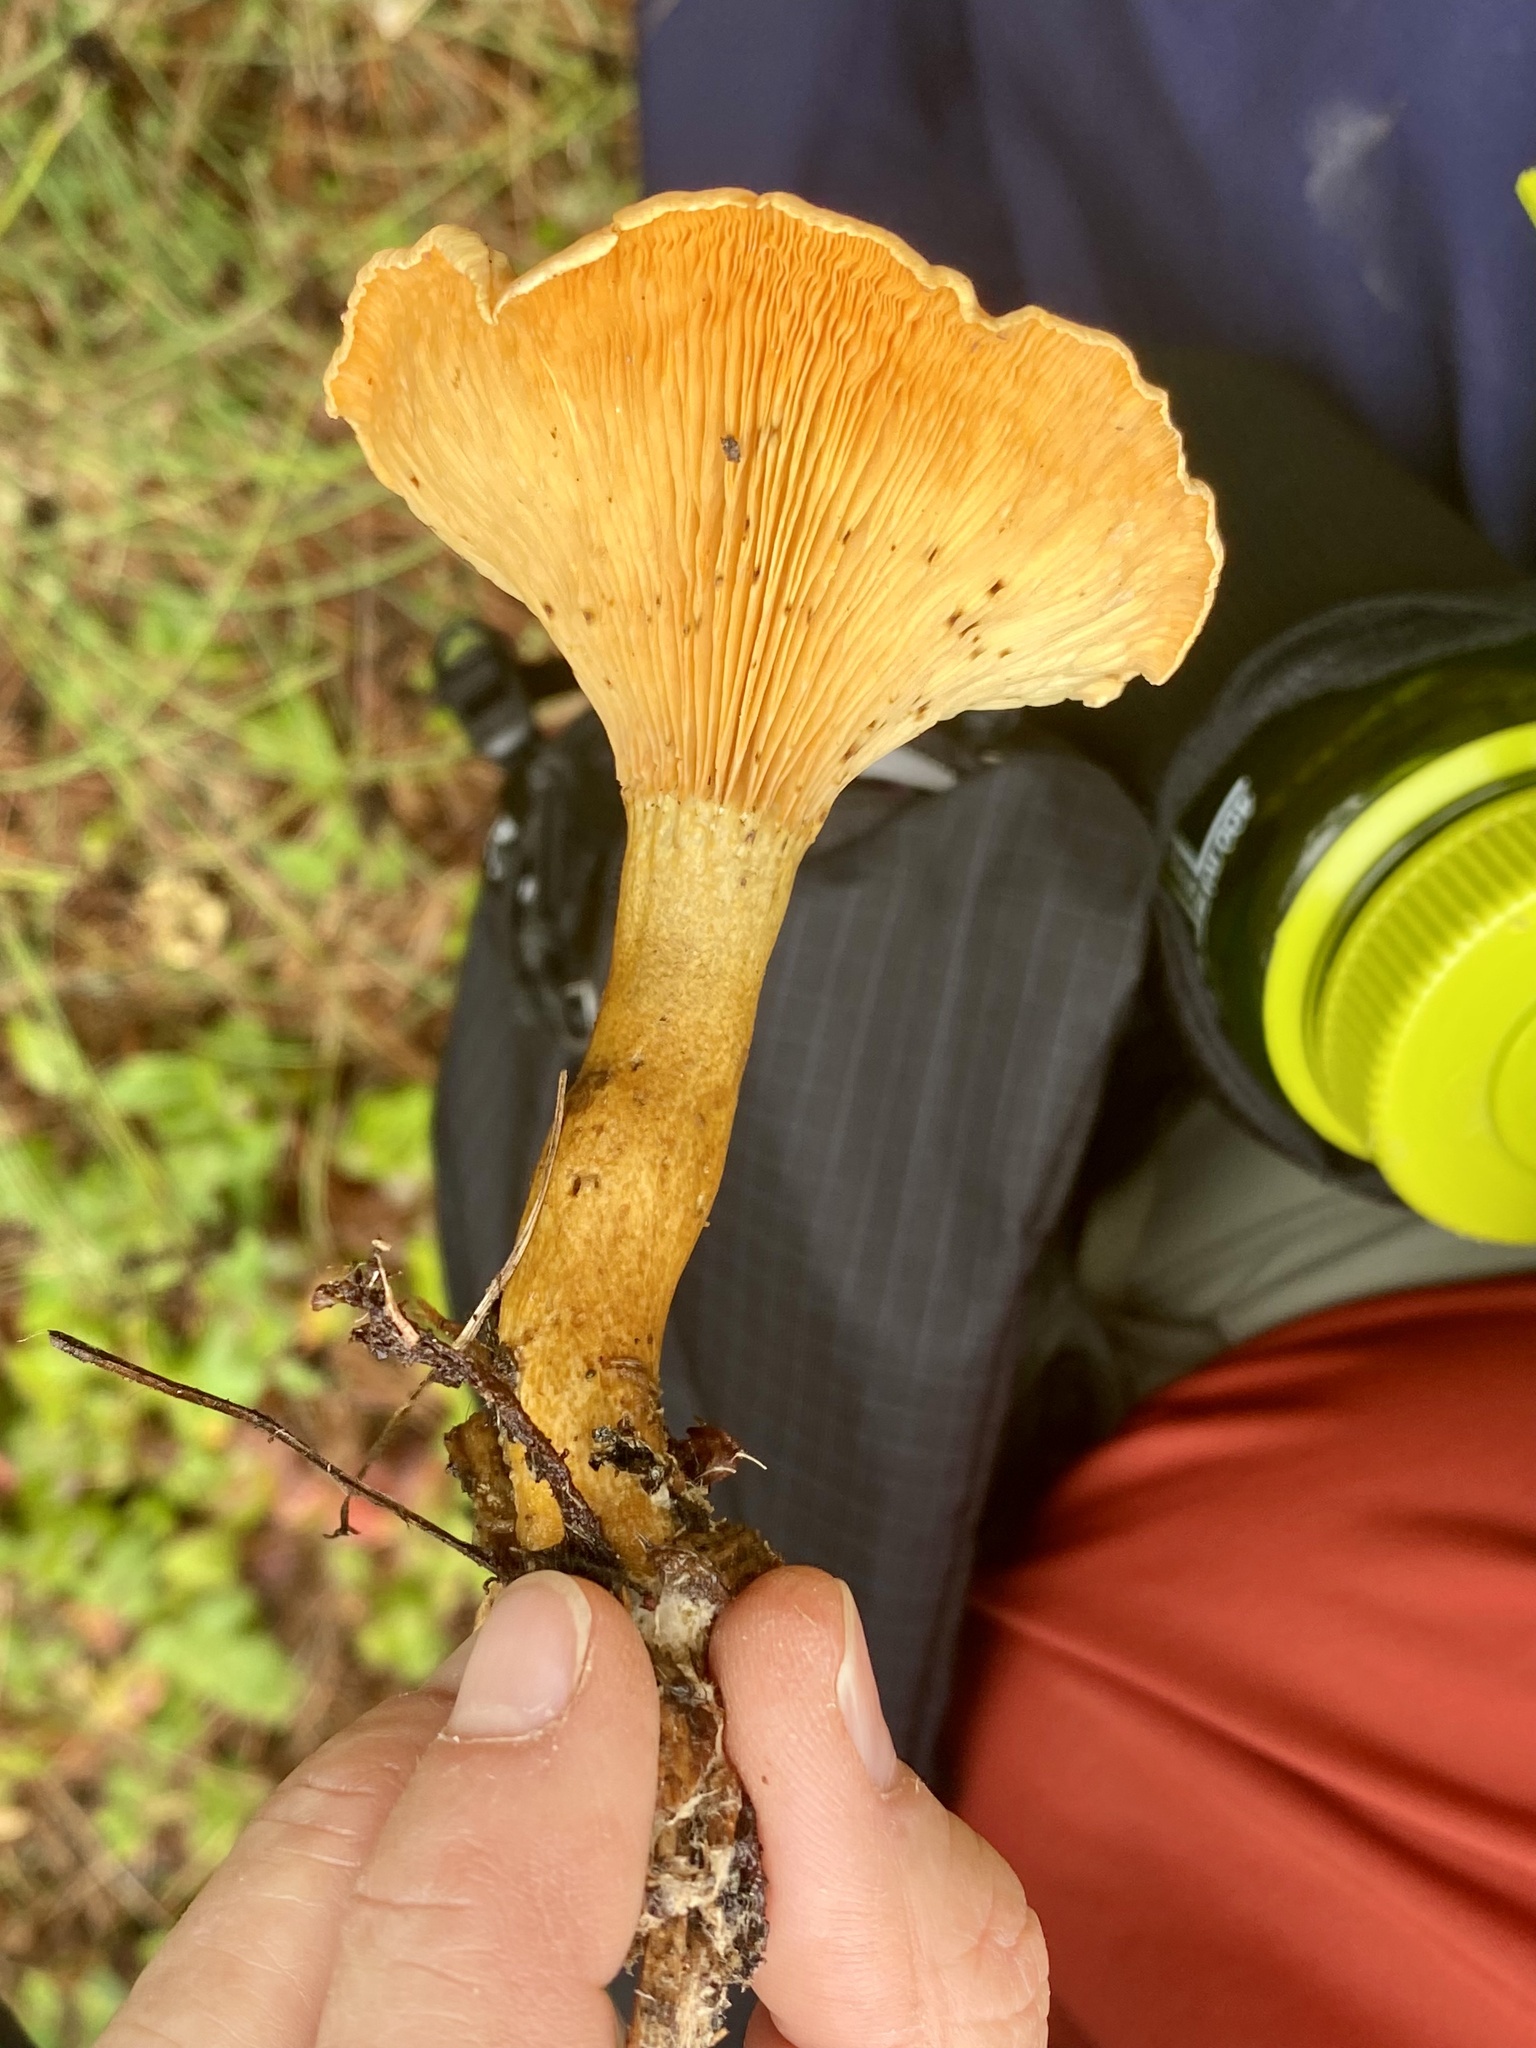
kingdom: Fungi
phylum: Basidiomycota
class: Agaricomycetes
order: Boletales
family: Hygrophoropsidaceae
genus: Hygrophoropsis
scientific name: Hygrophoropsis aurantiaca
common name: False chanterelle
